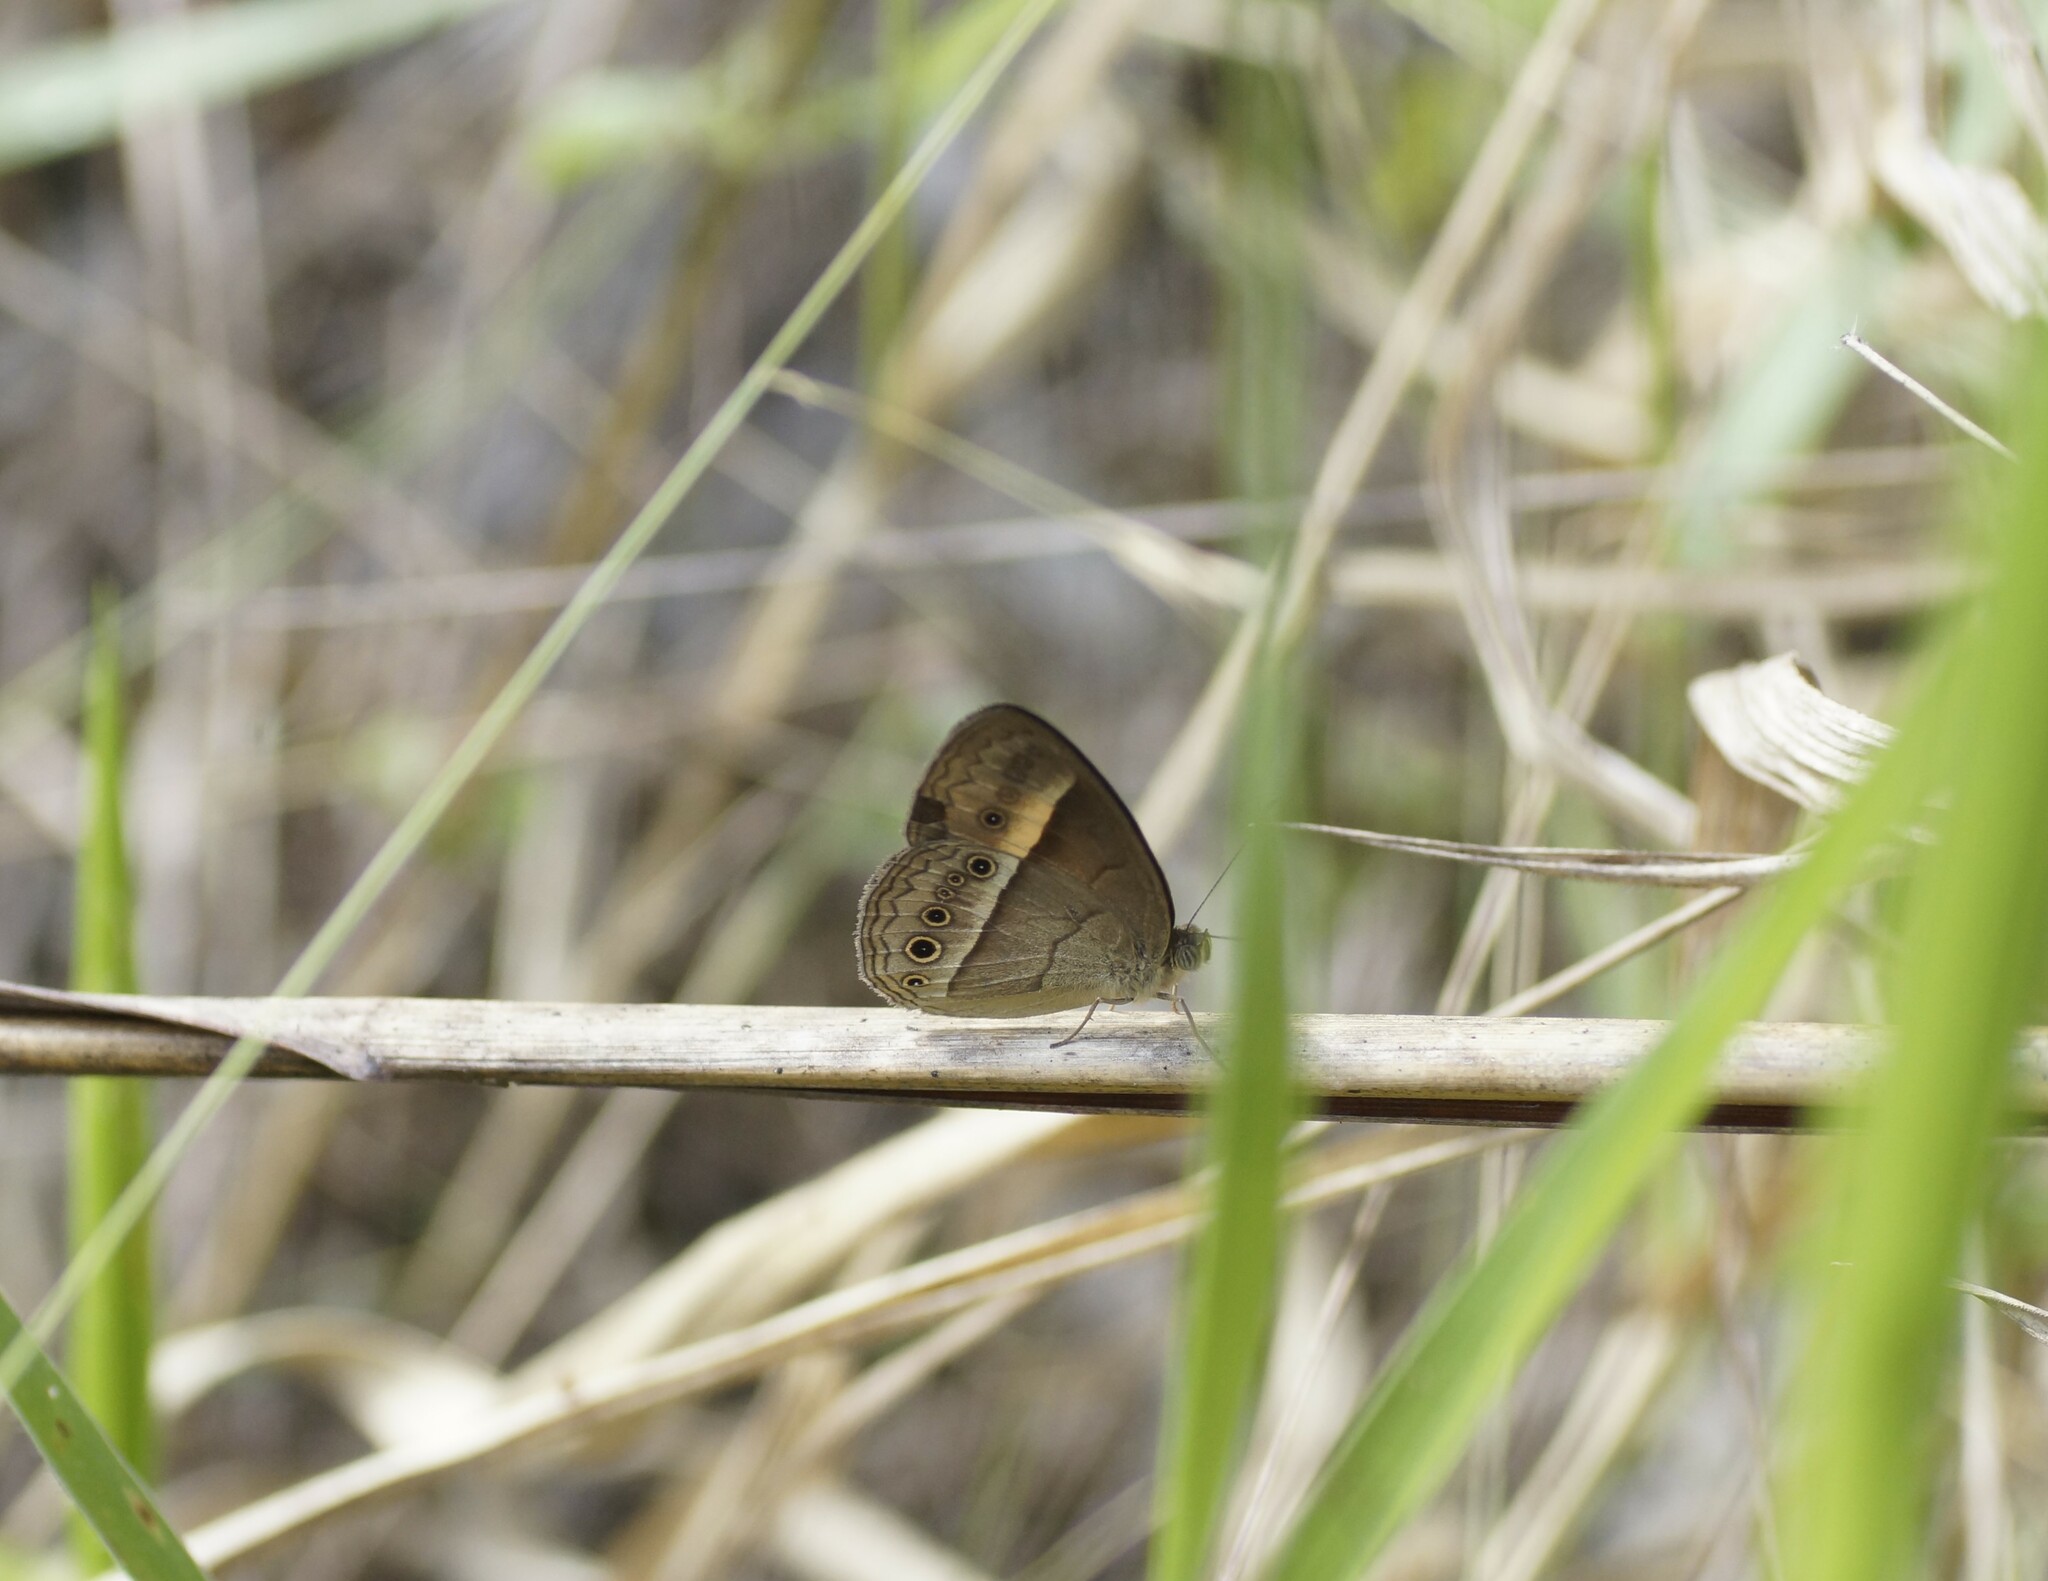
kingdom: Animalia
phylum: Arthropoda
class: Insecta
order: Lepidoptera
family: Nymphalidae
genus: Mycalesis
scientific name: Mycalesis terminus
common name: Orange bushbrown
